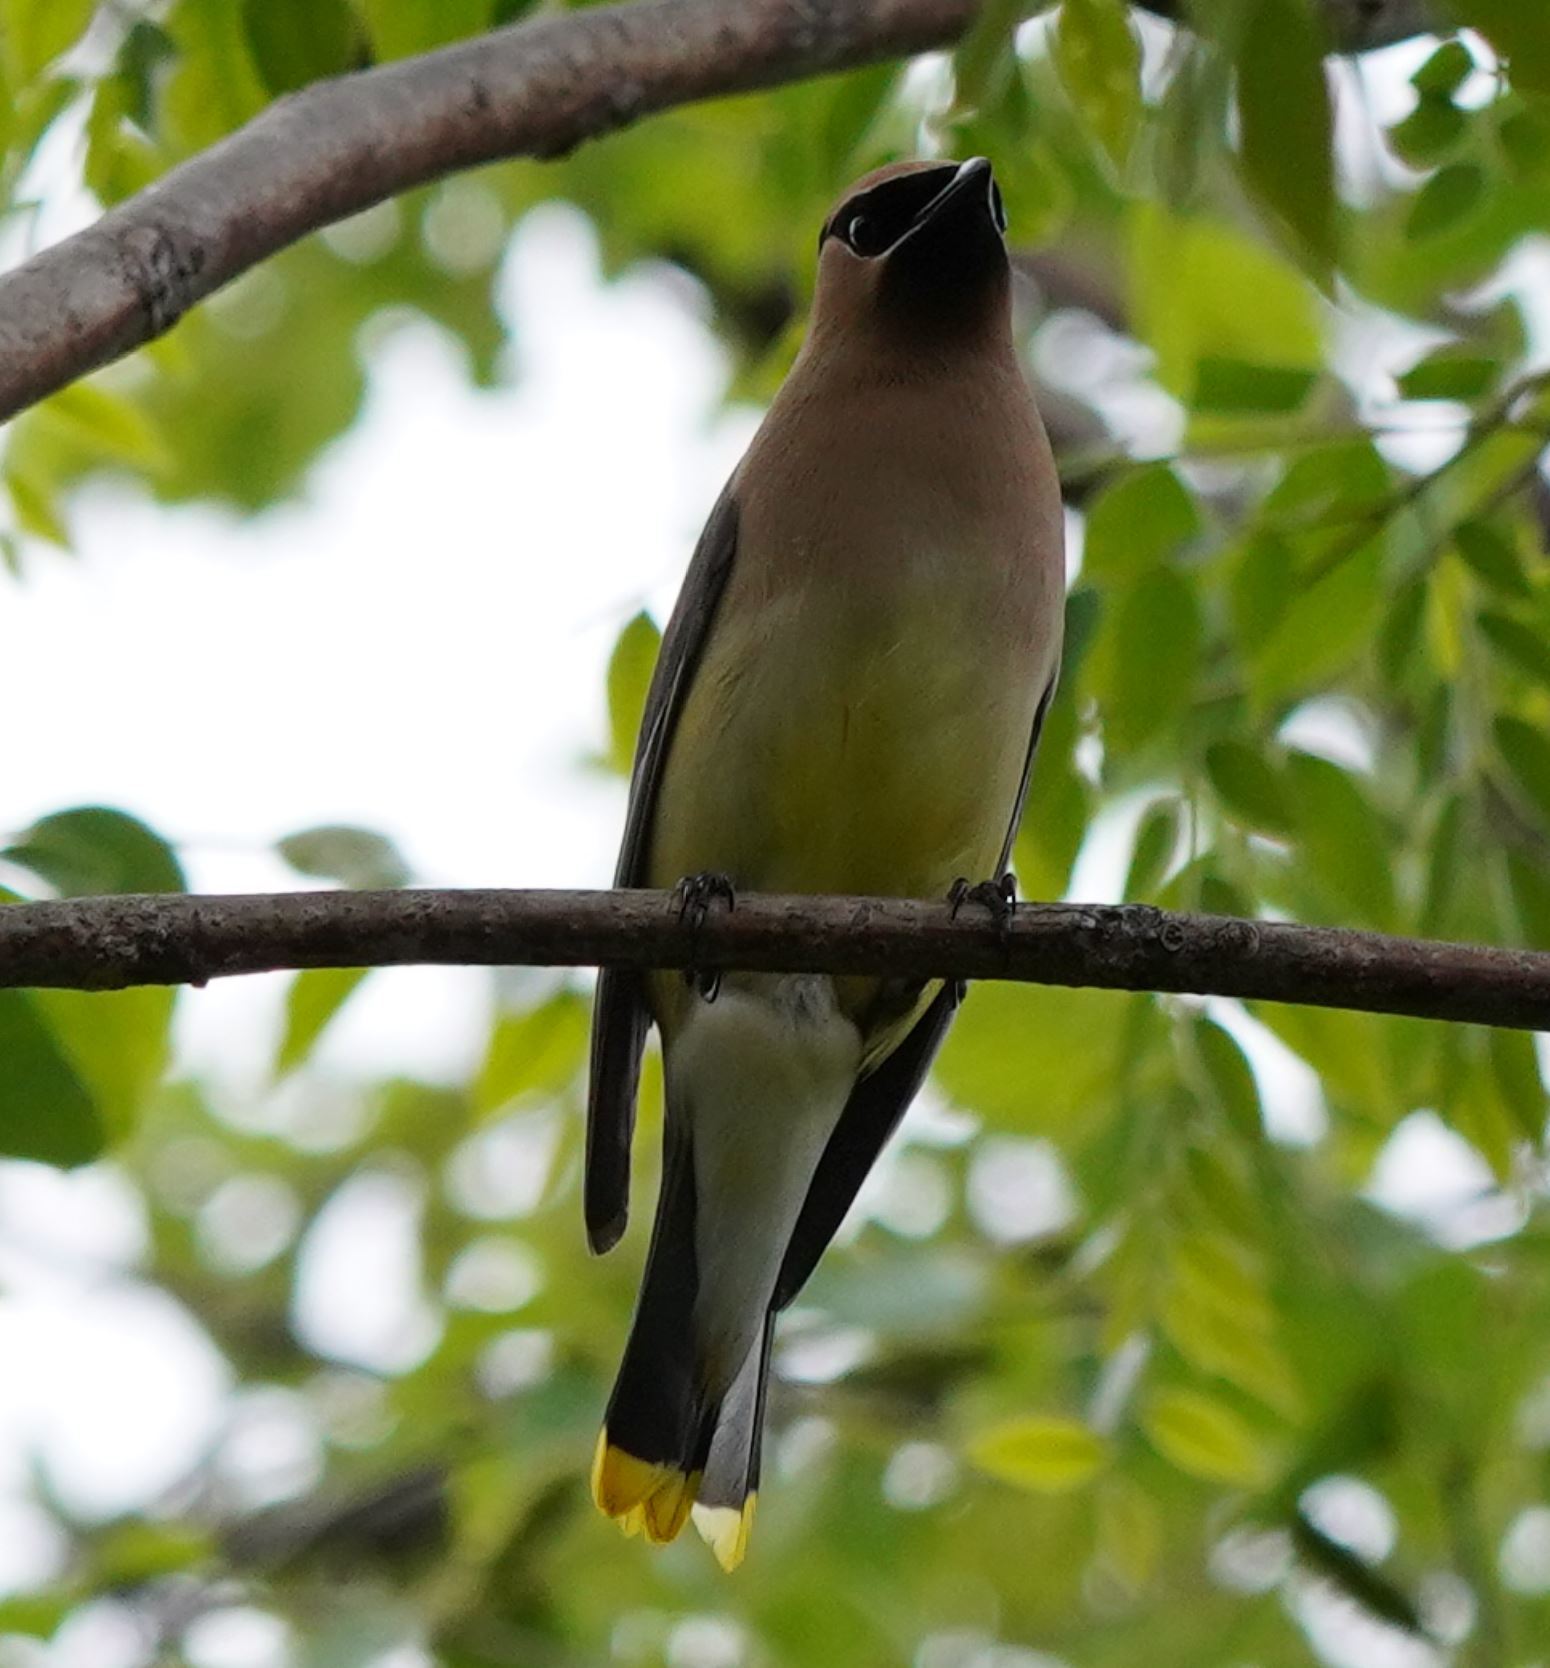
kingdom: Animalia
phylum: Chordata
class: Aves
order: Passeriformes
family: Bombycillidae
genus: Bombycilla
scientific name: Bombycilla cedrorum
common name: Cedar waxwing
